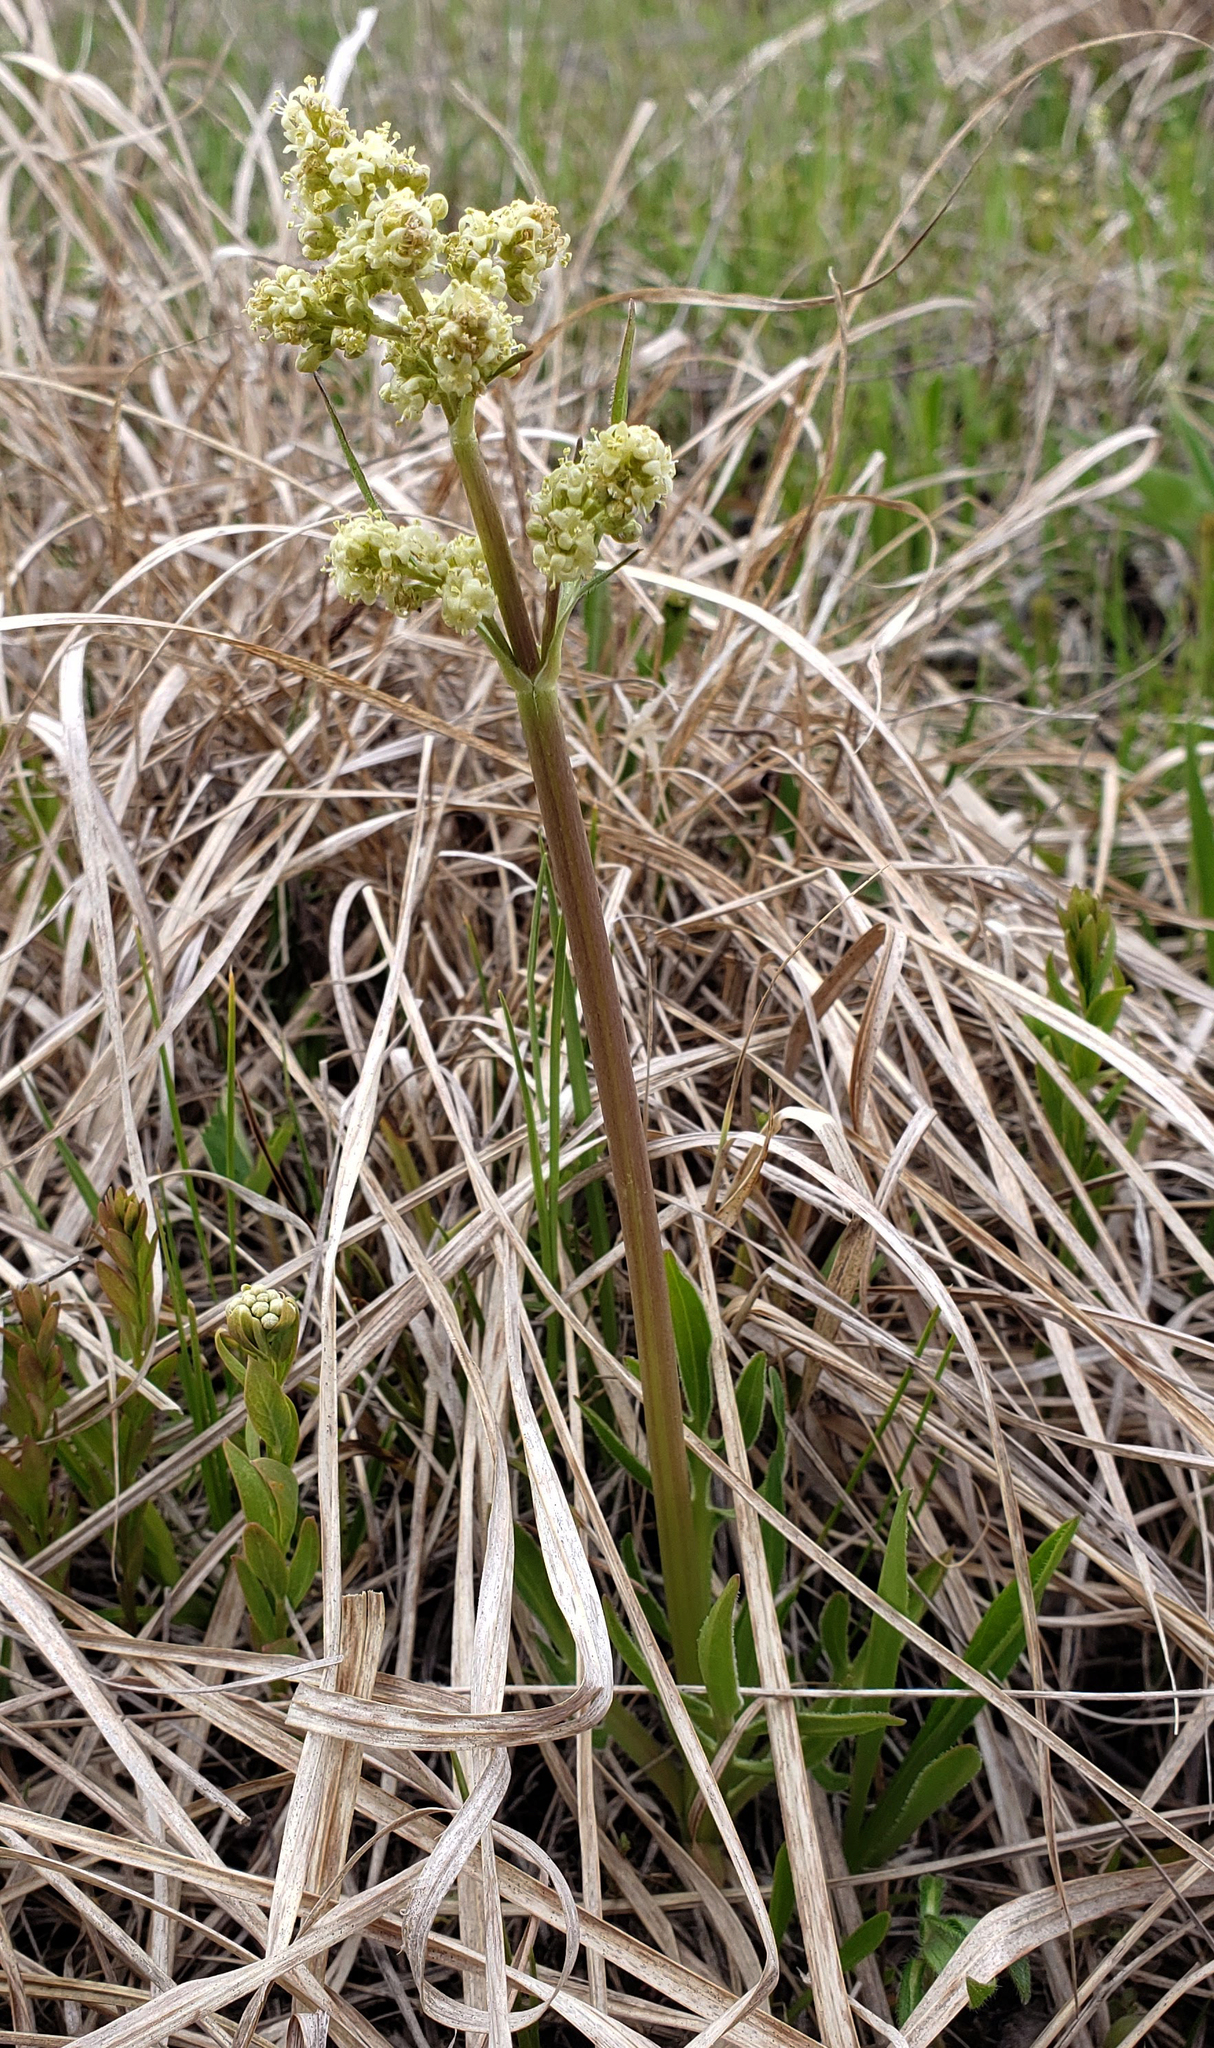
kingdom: Plantae
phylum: Tracheophyta
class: Magnoliopsida
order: Dipsacales
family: Caprifoliaceae
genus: Valeriana
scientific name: Valeriana edulis
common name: Taproot valerian
